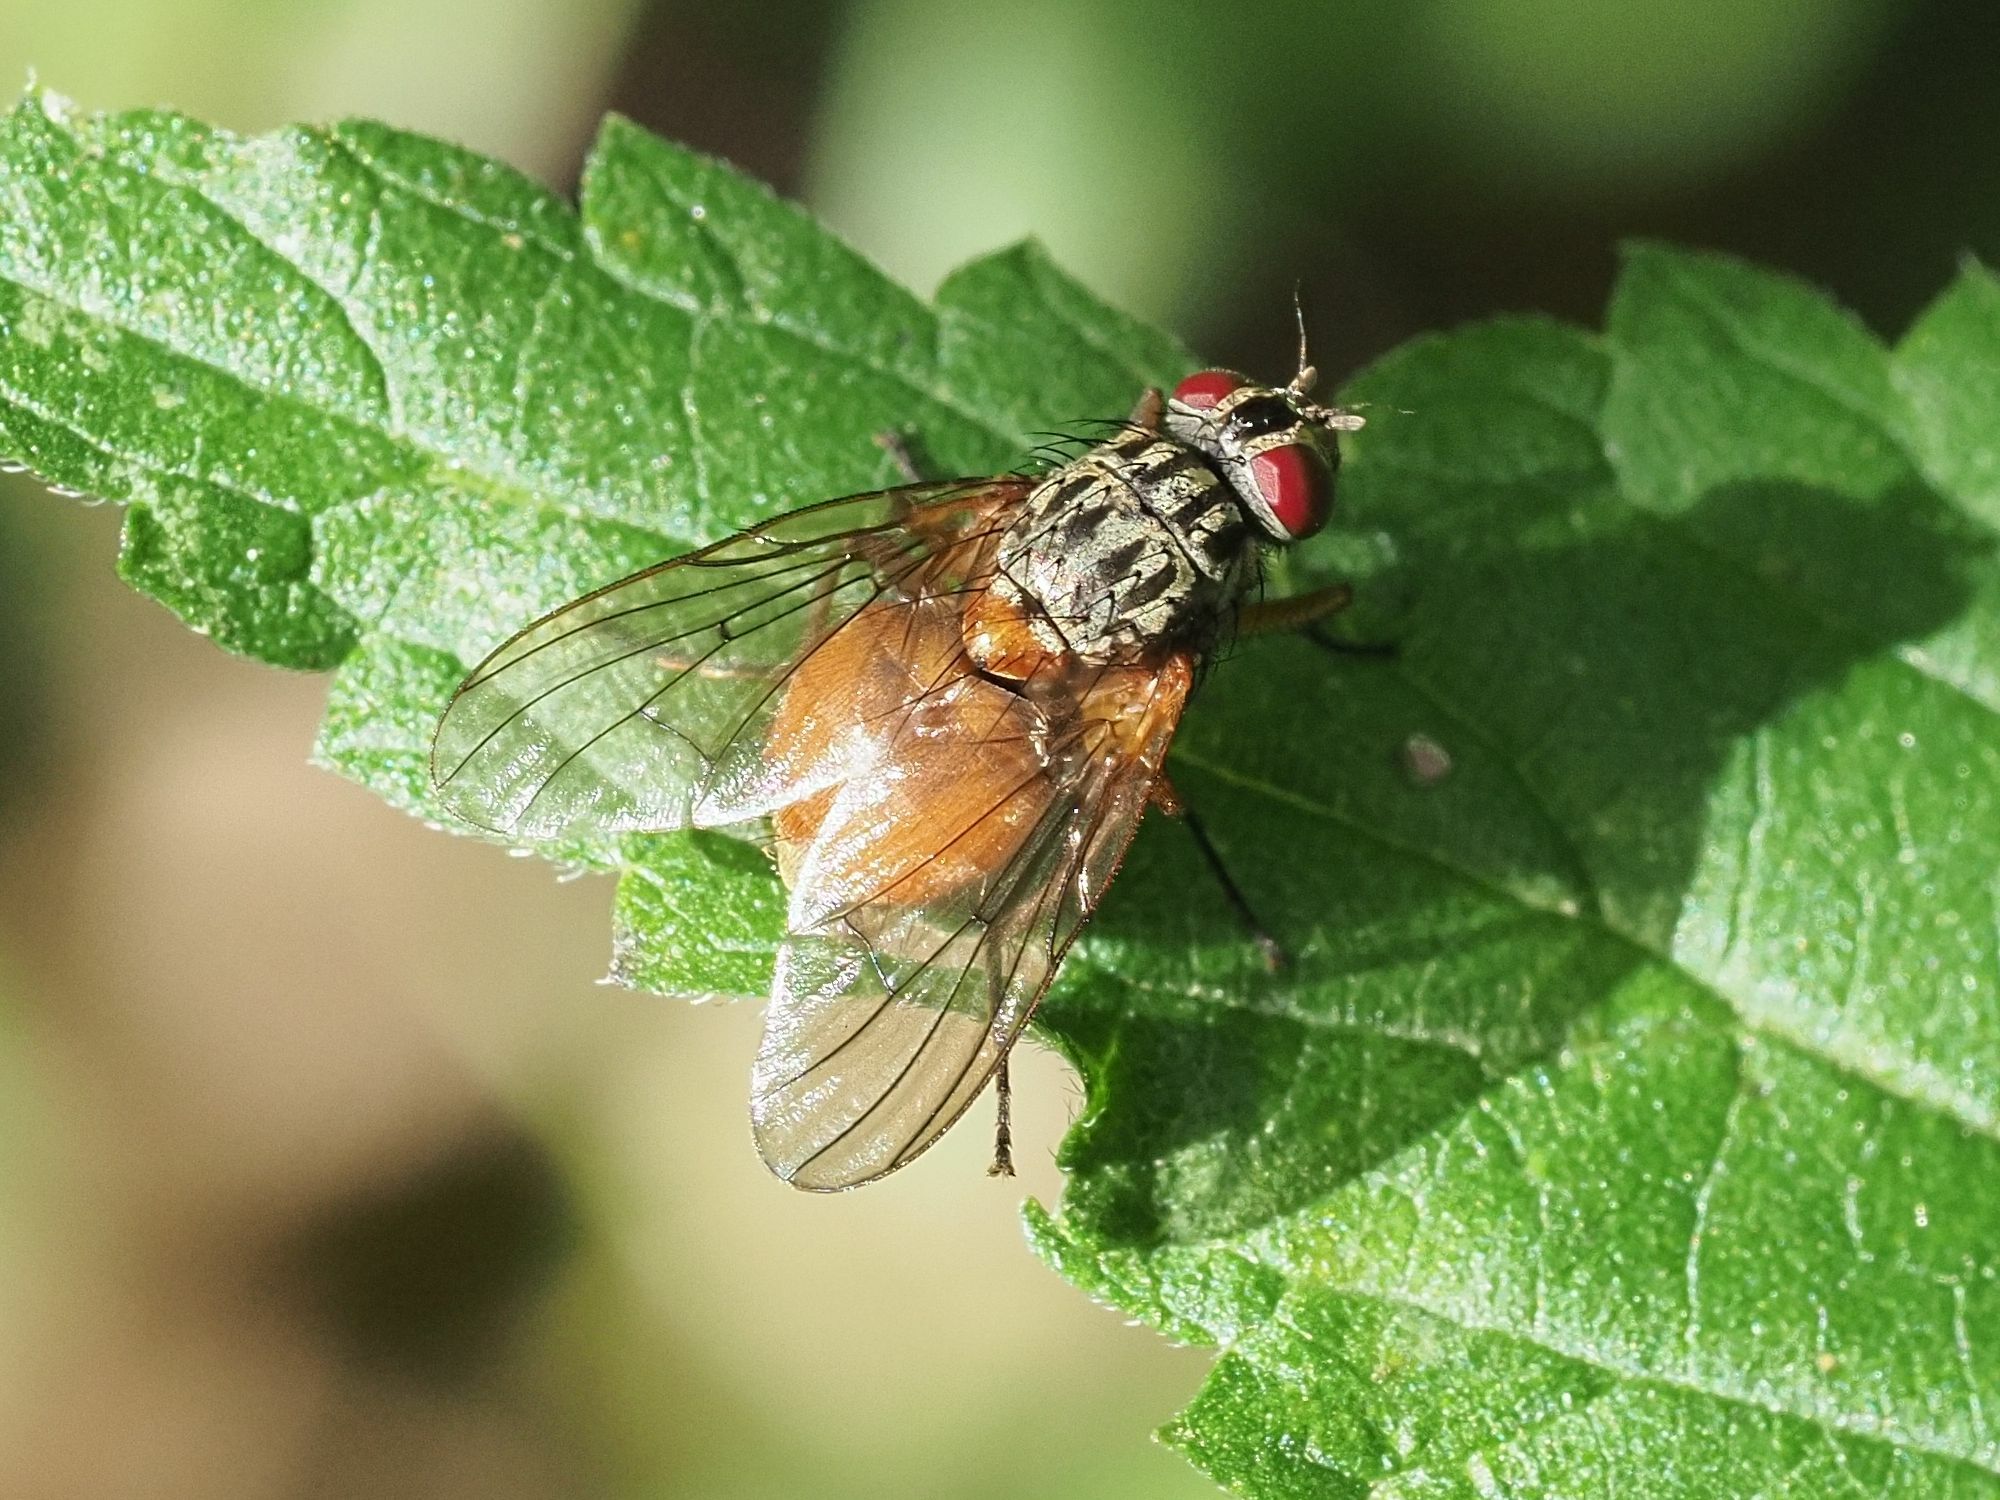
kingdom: Animalia
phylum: Arthropoda
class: Insecta
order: Diptera
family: Muscidae
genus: Phaonia
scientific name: Phaonia subventa
